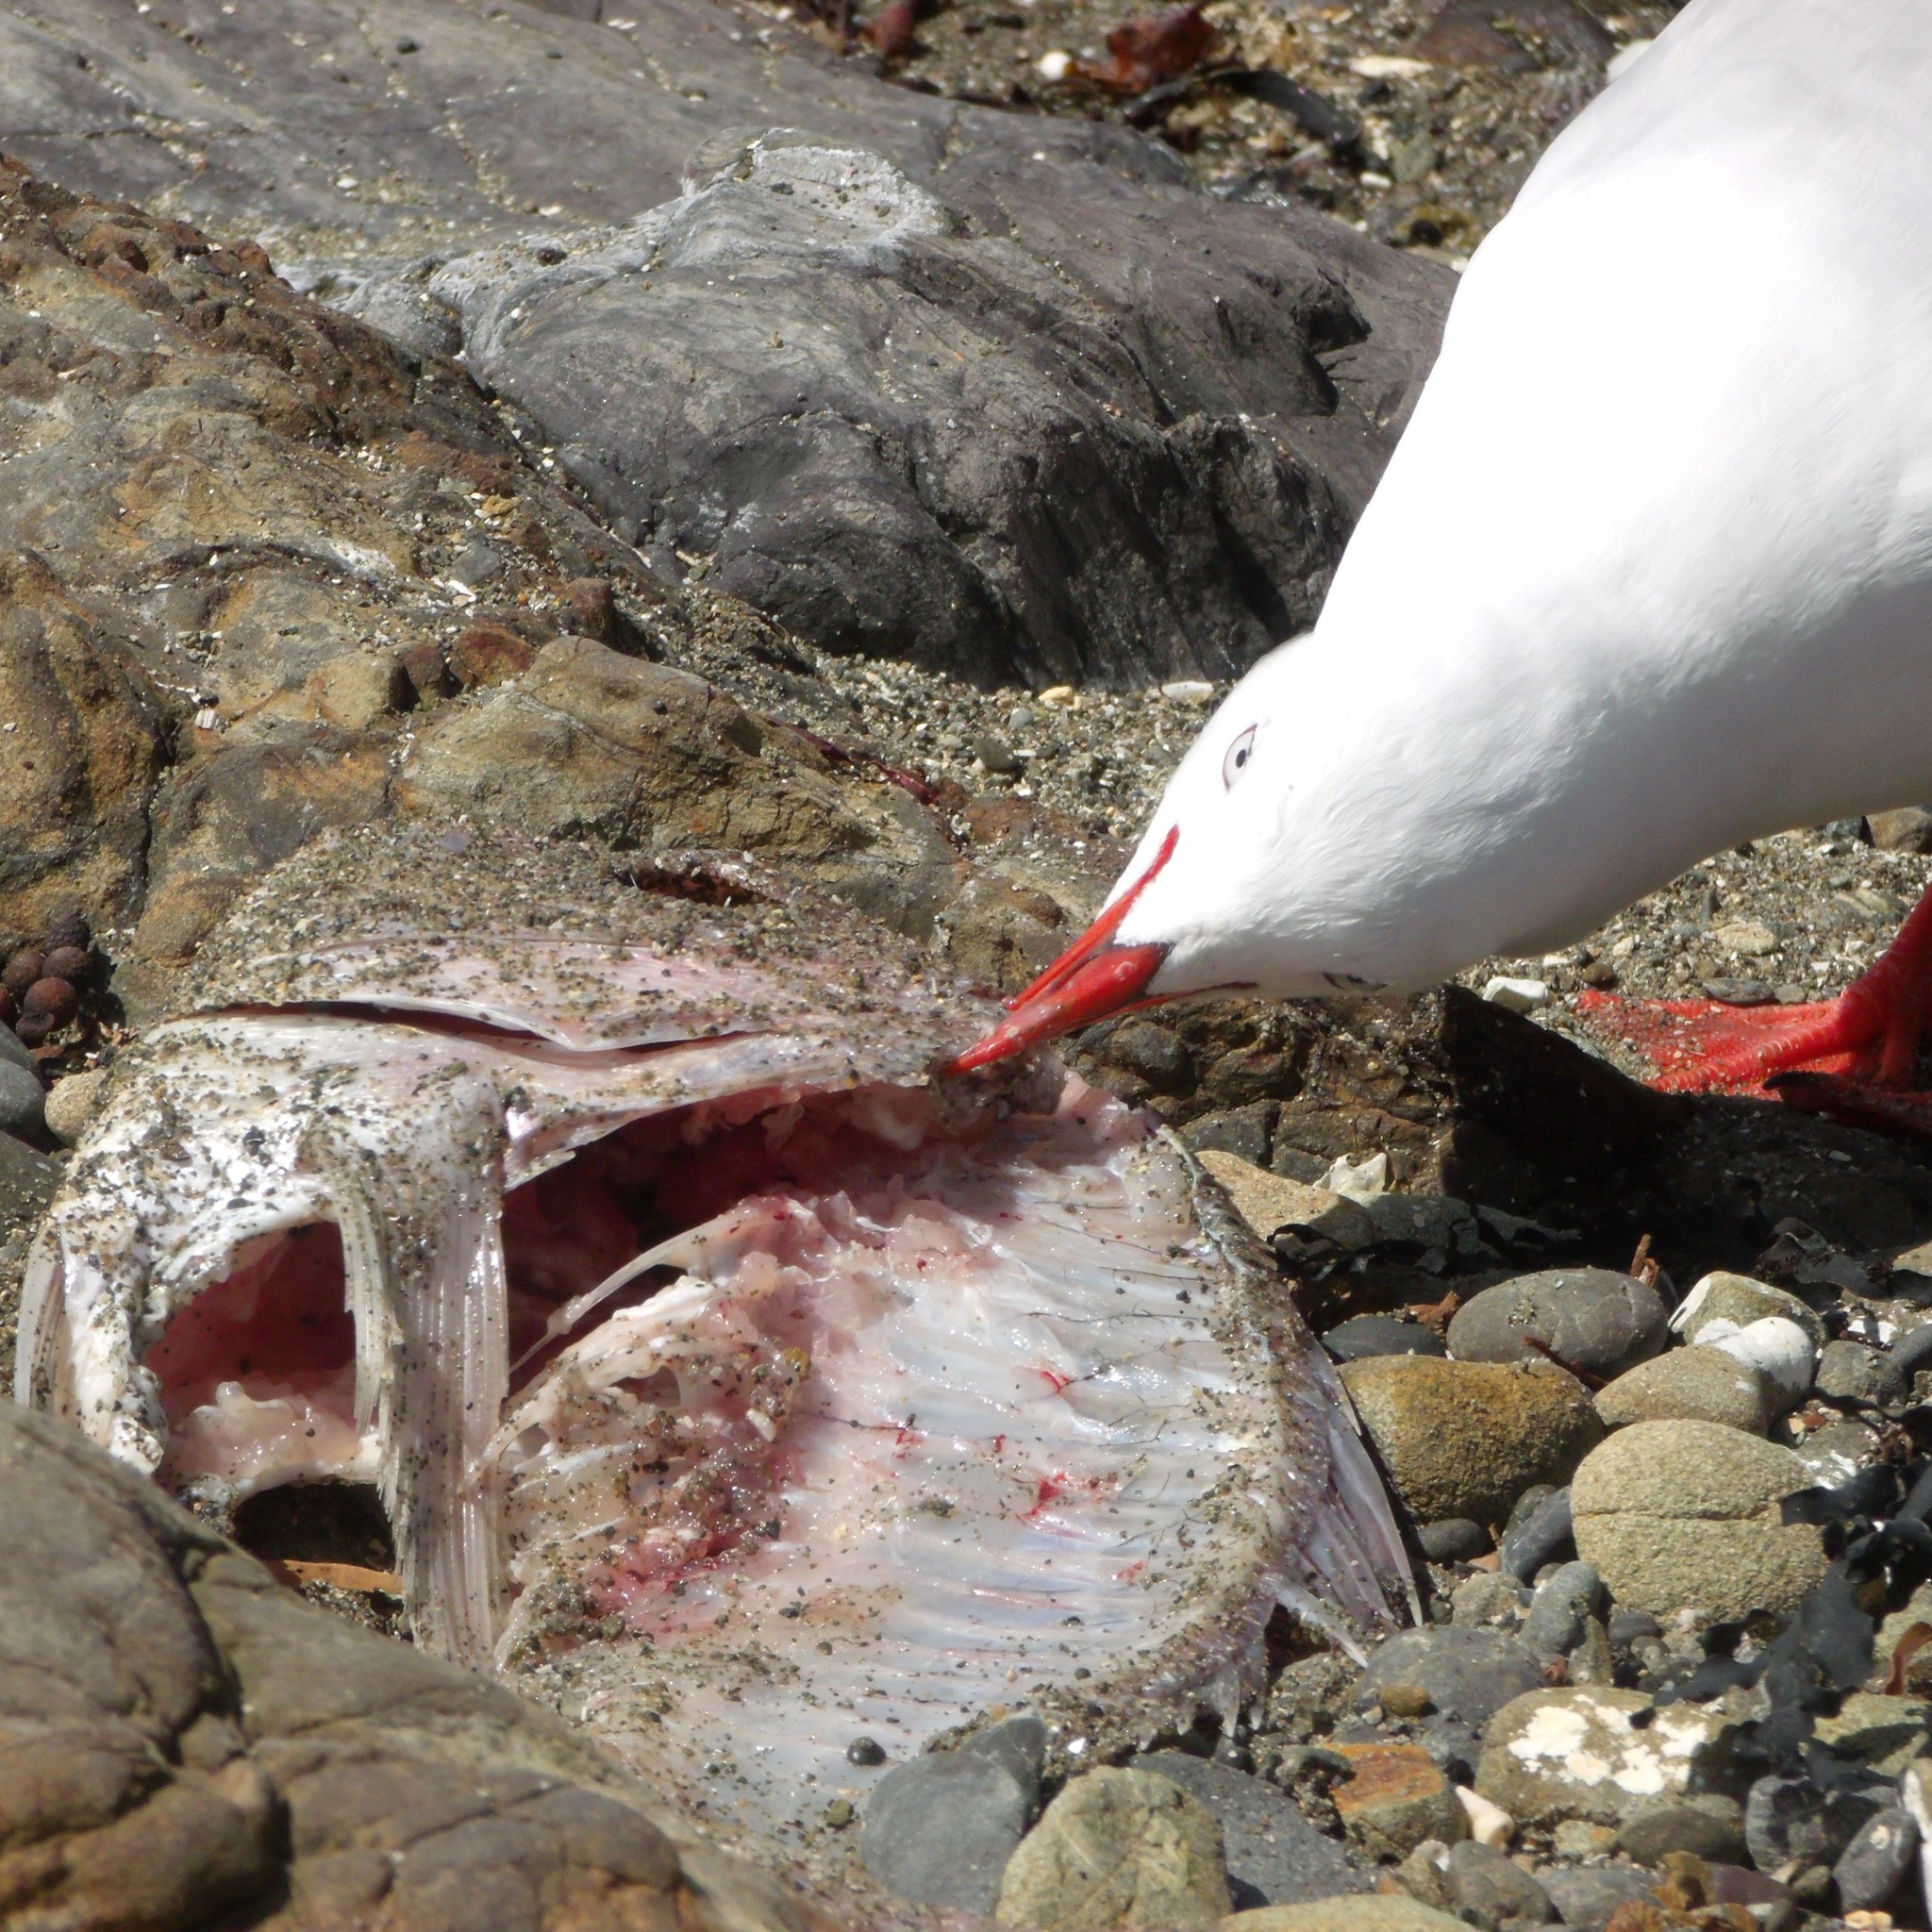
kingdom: Animalia
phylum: Chordata
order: Perciformes
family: Sparidae
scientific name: Sparidae
